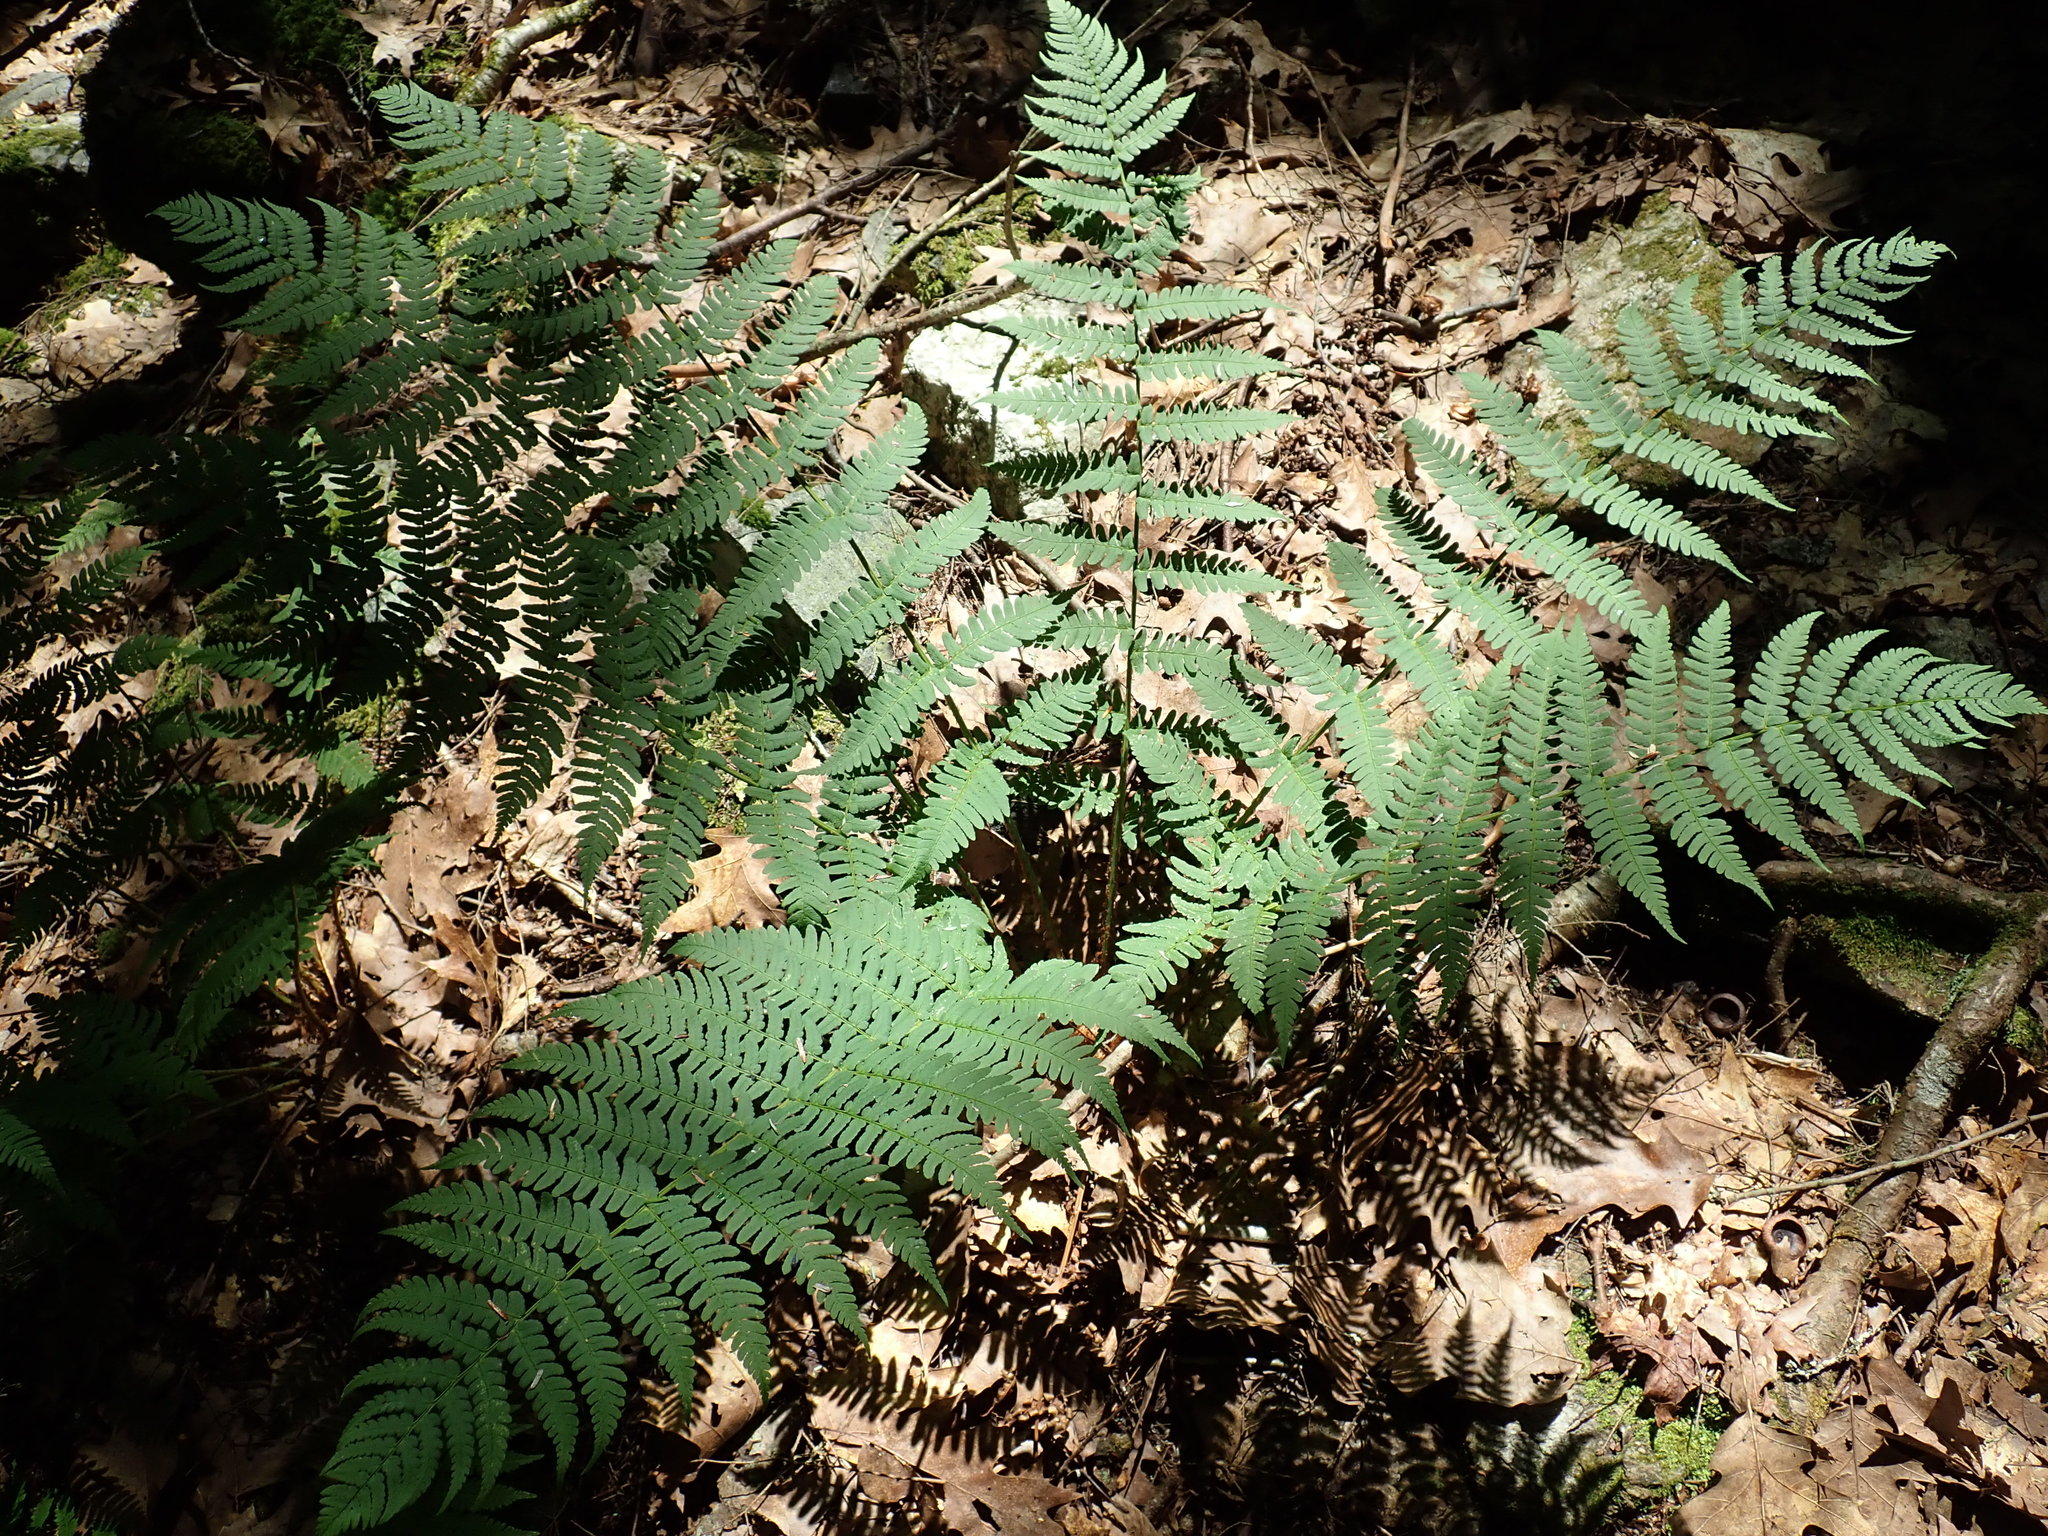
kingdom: Plantae
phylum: Tracheophyta
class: Polypodiopsida
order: Polypodiales
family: Dryopteridaceae
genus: Dryopteris
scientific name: Dryopteris marginalis
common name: Marginal wood fern
